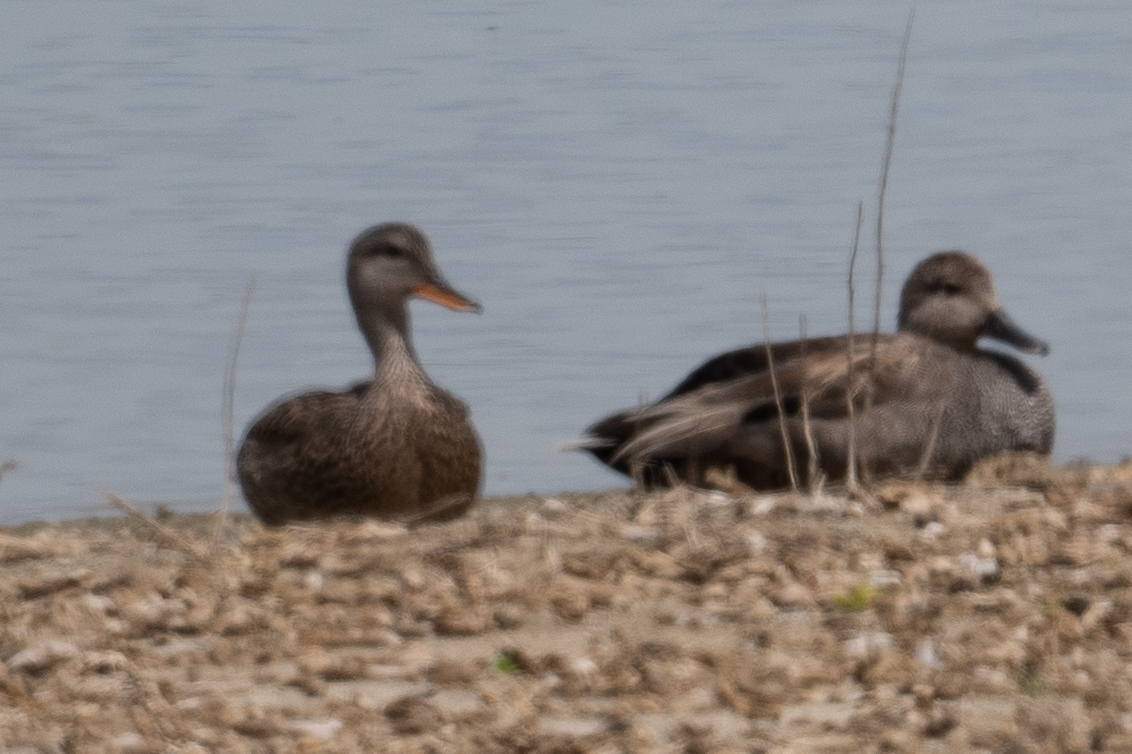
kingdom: Animalia
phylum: Chordata
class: Aves
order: Anseriformes
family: Anatidae
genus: Mareca
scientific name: Mareca strepera
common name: Gadwall
